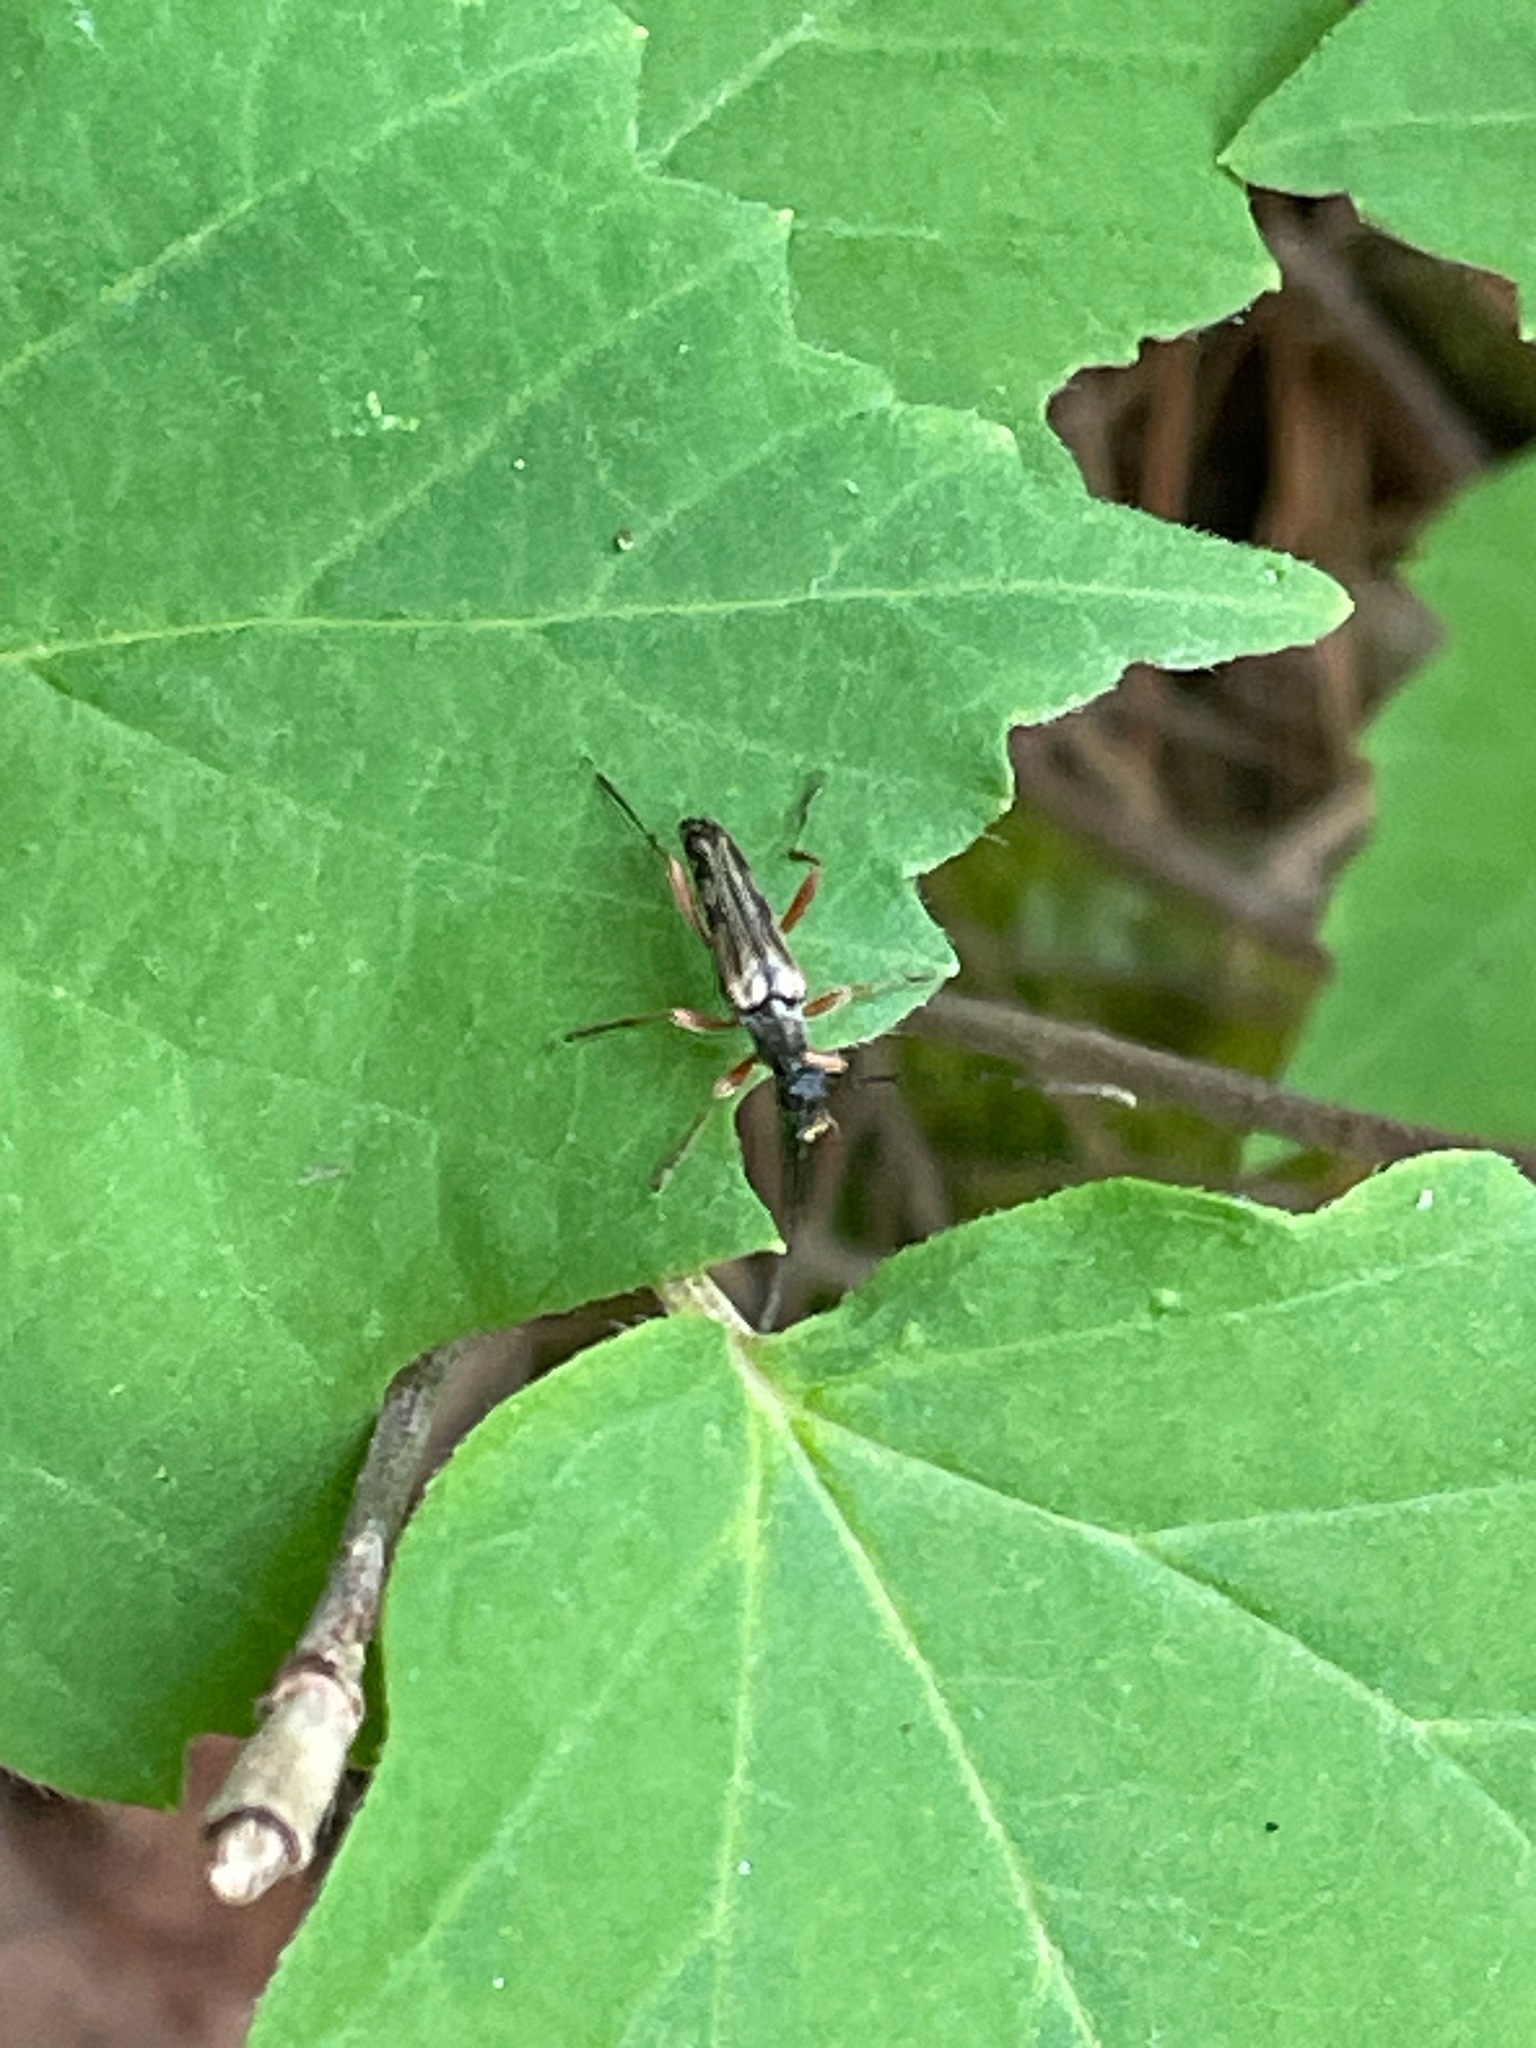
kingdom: Animalia
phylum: Arthropoda
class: Insecta
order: Coleoptera
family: Cerambycidae
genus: Analeptura
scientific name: Analeptura lineola
